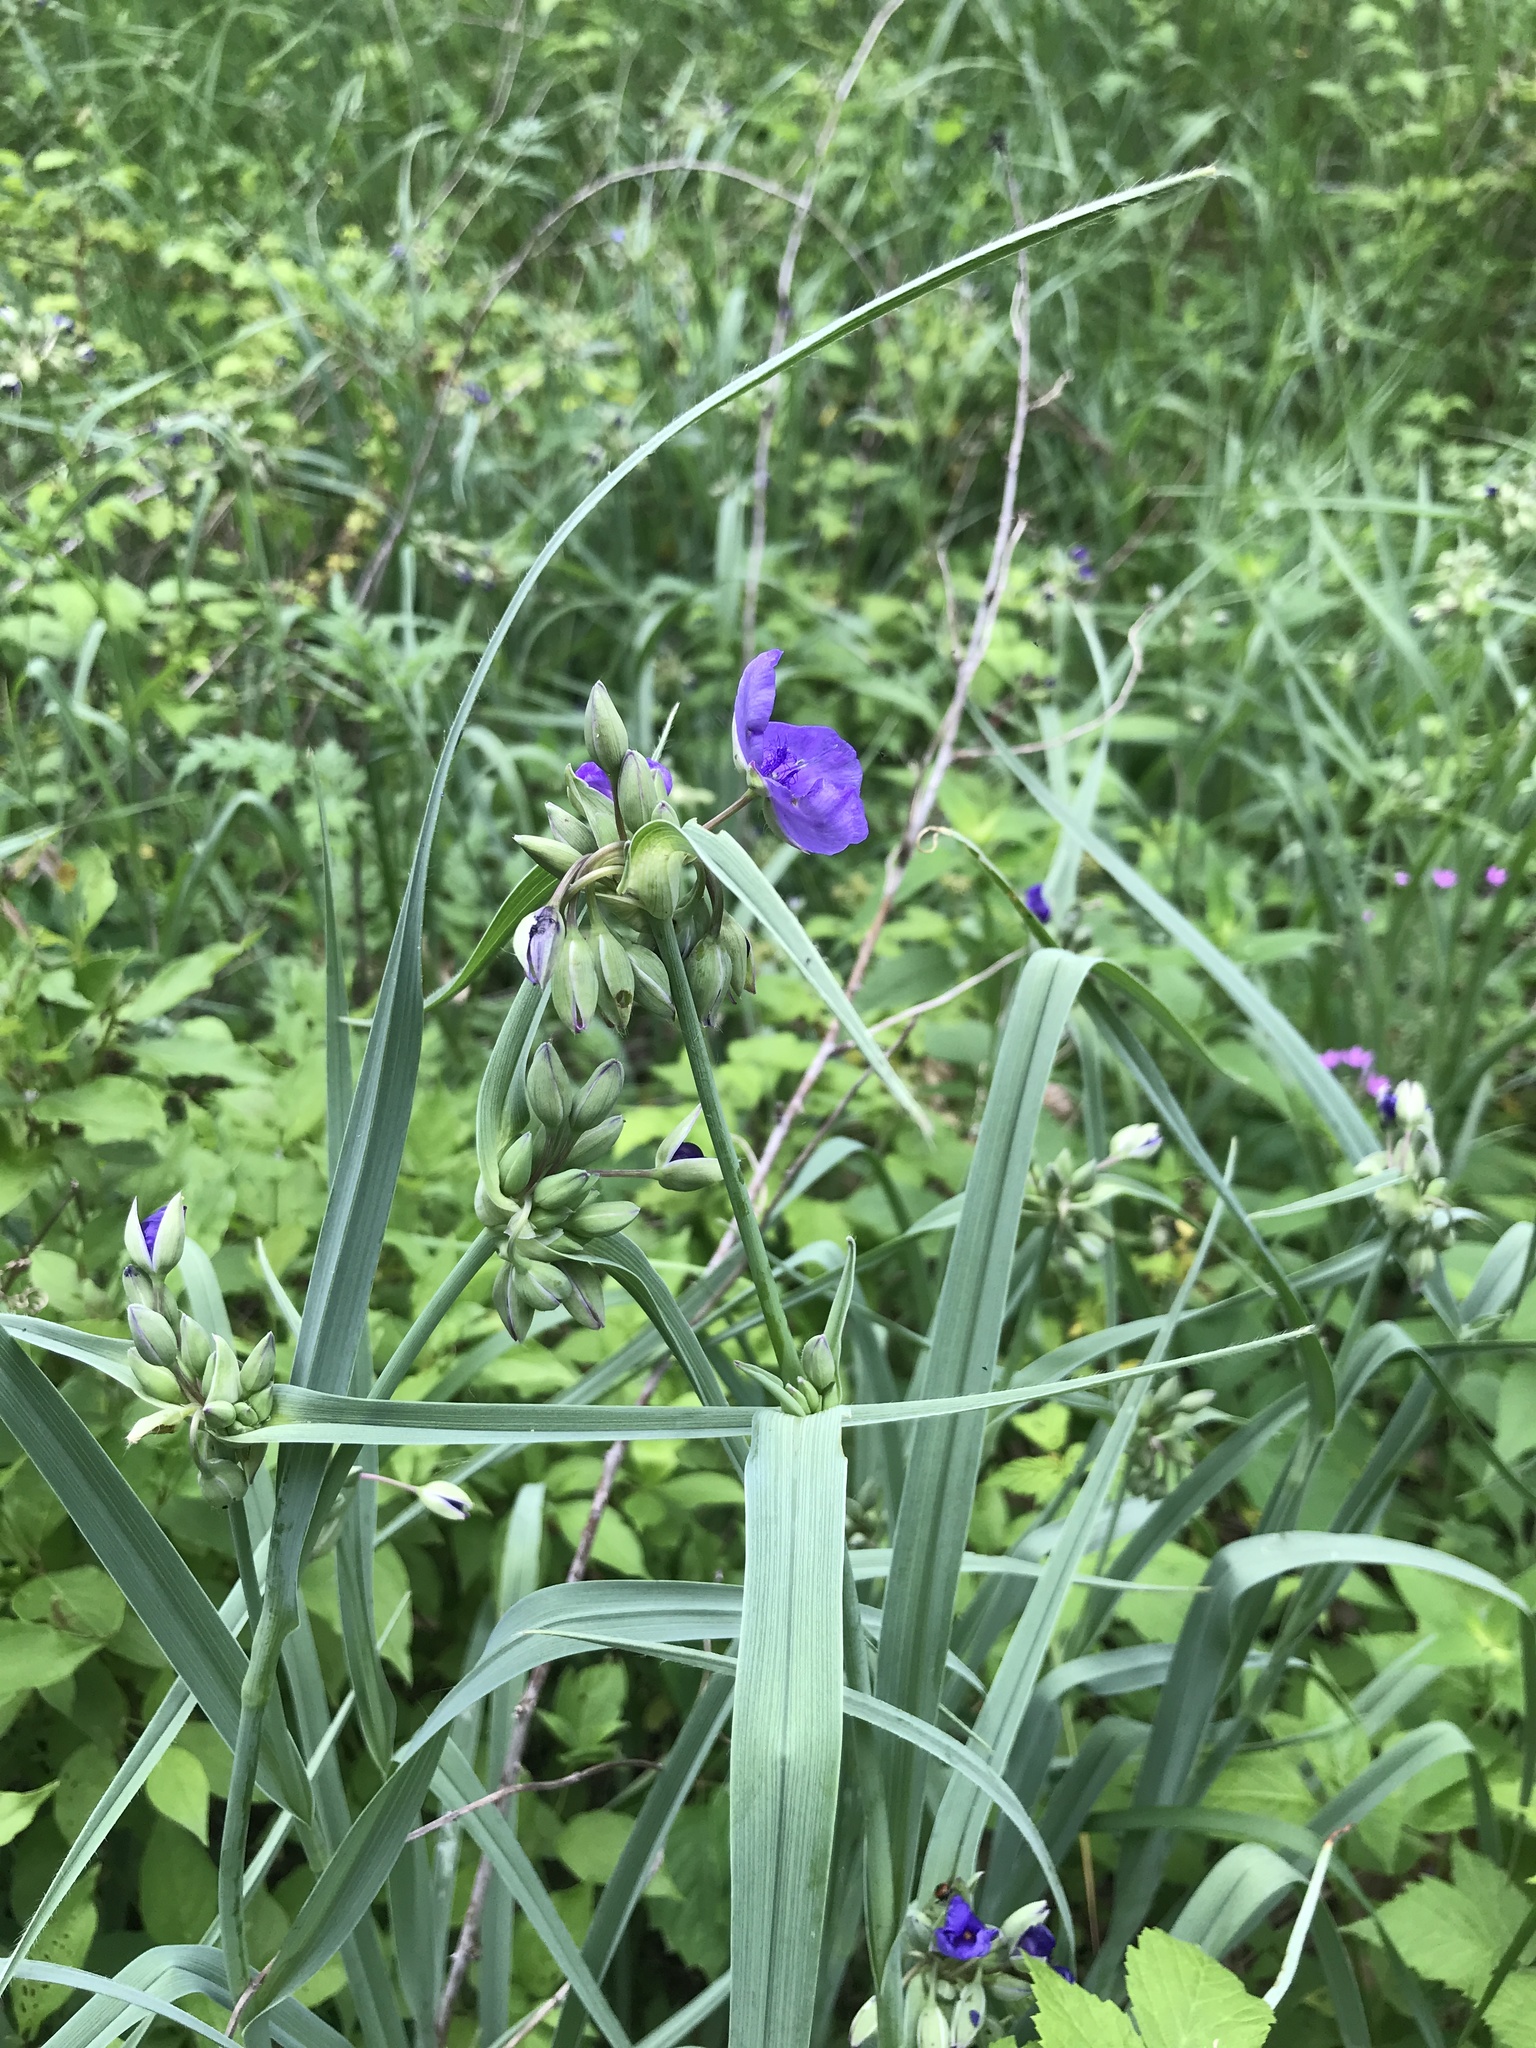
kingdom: Plantae
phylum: Tracheophyta
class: Liliopsida
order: Commelinales
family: Commelinaceae
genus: Tradescantia
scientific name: Tradescantia ohiensis
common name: Ohio spiderwort
